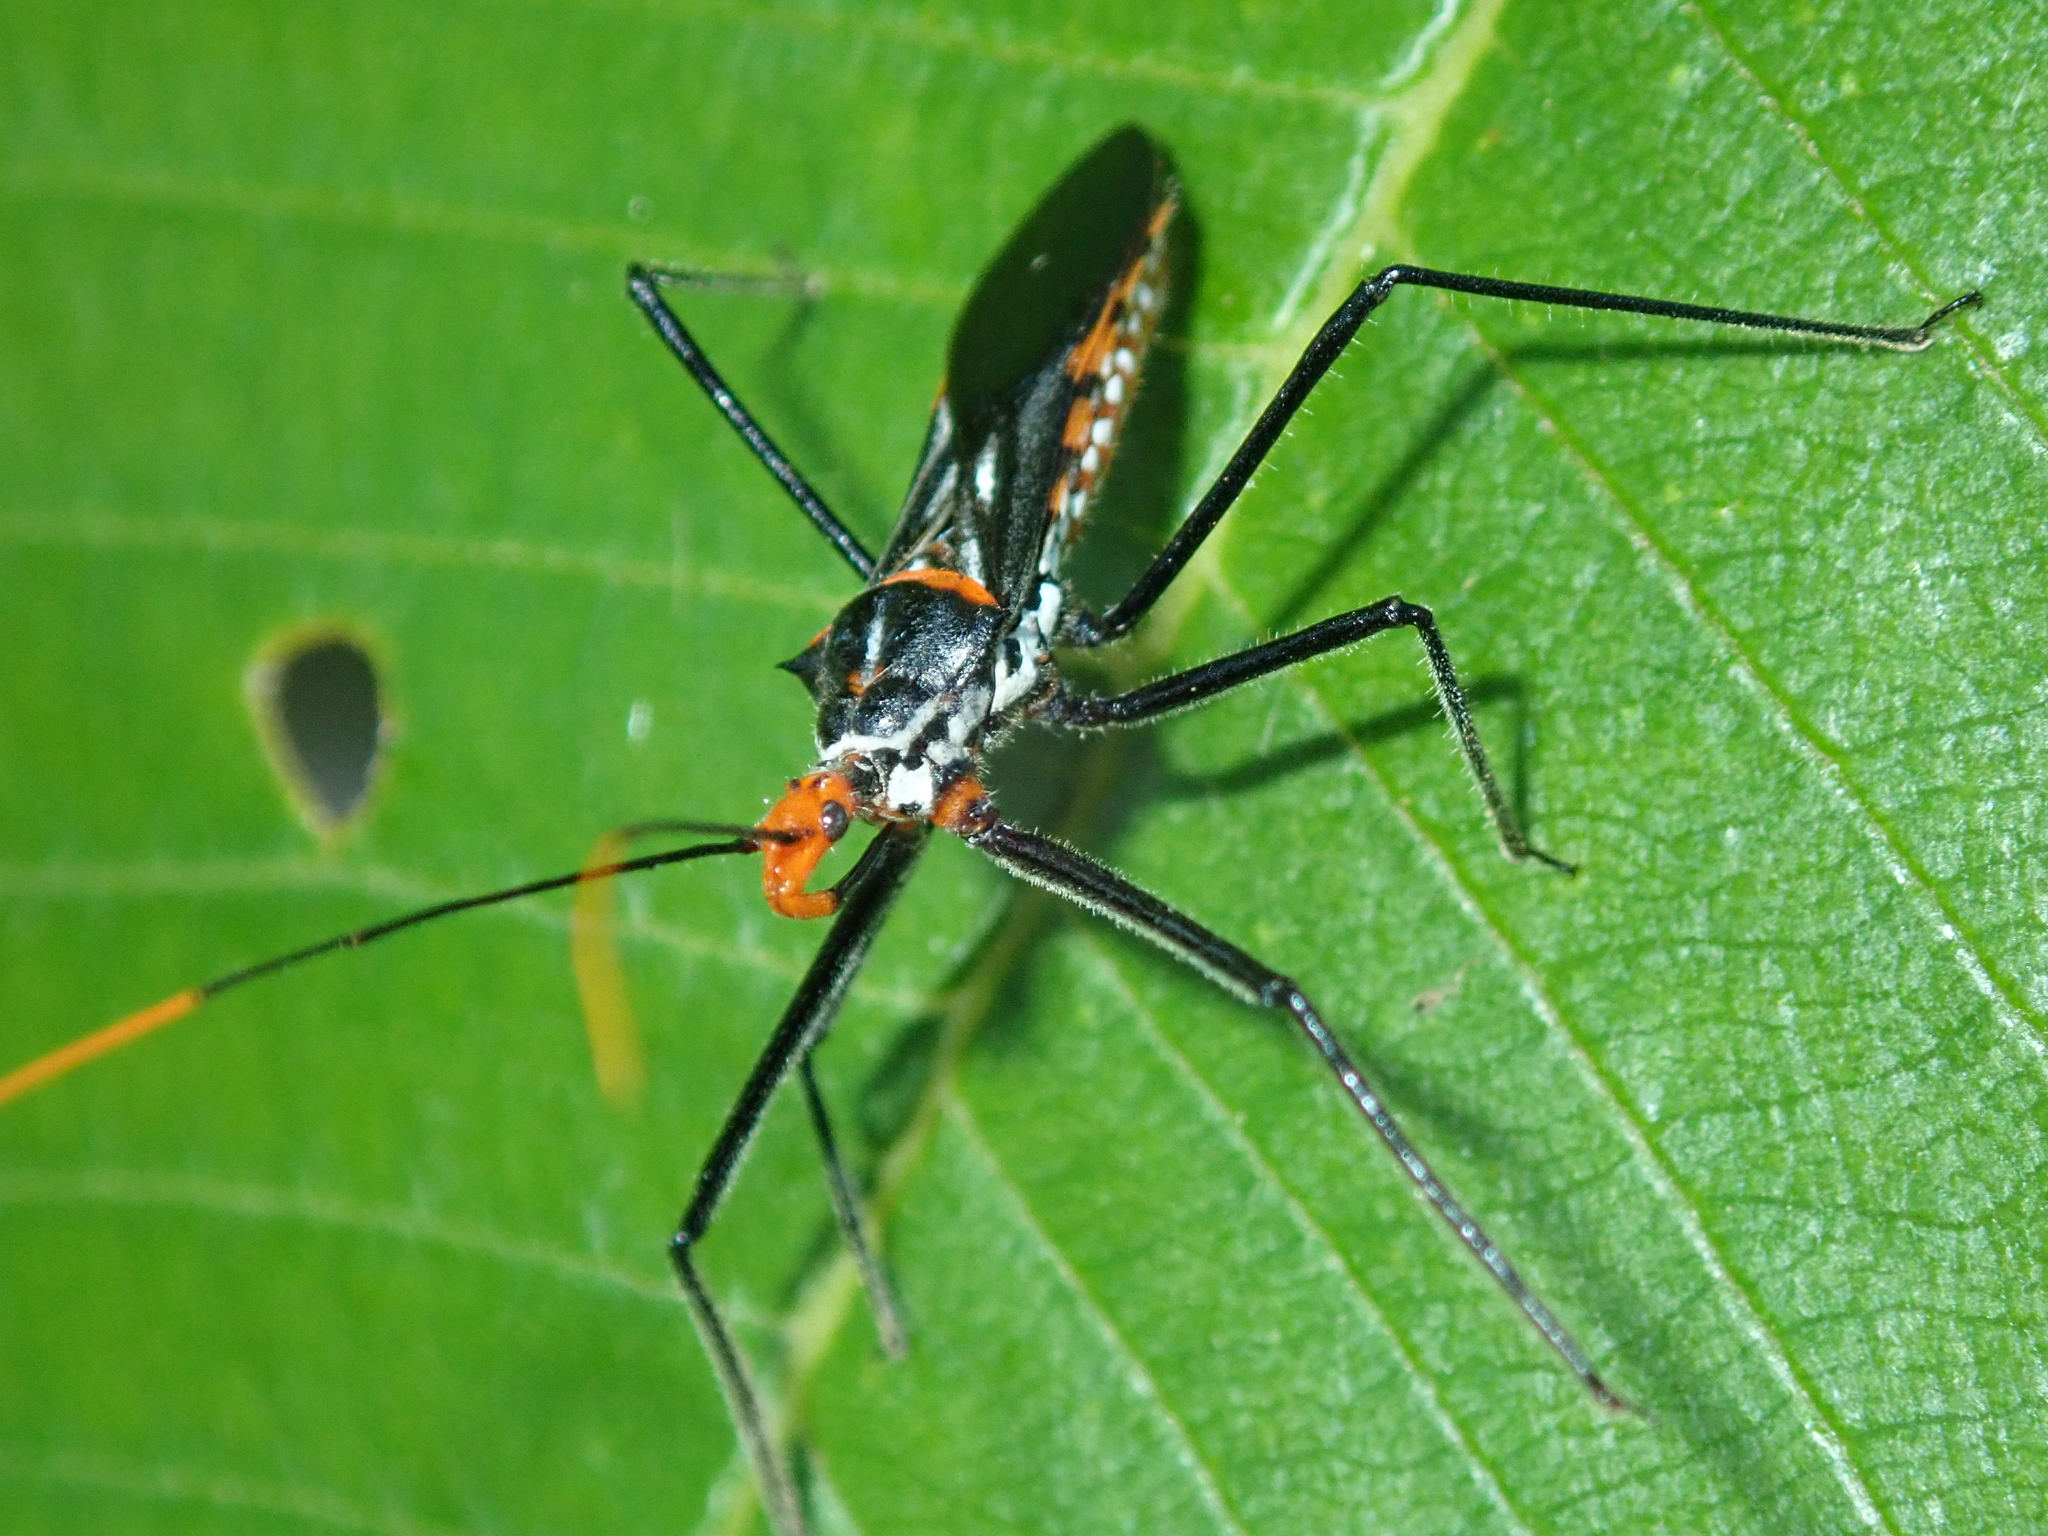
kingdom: Animalia
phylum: Arthropoda
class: Insecta
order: Hemiptera
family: Reduviidae
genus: Zelus
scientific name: Zelus leucogrammus
